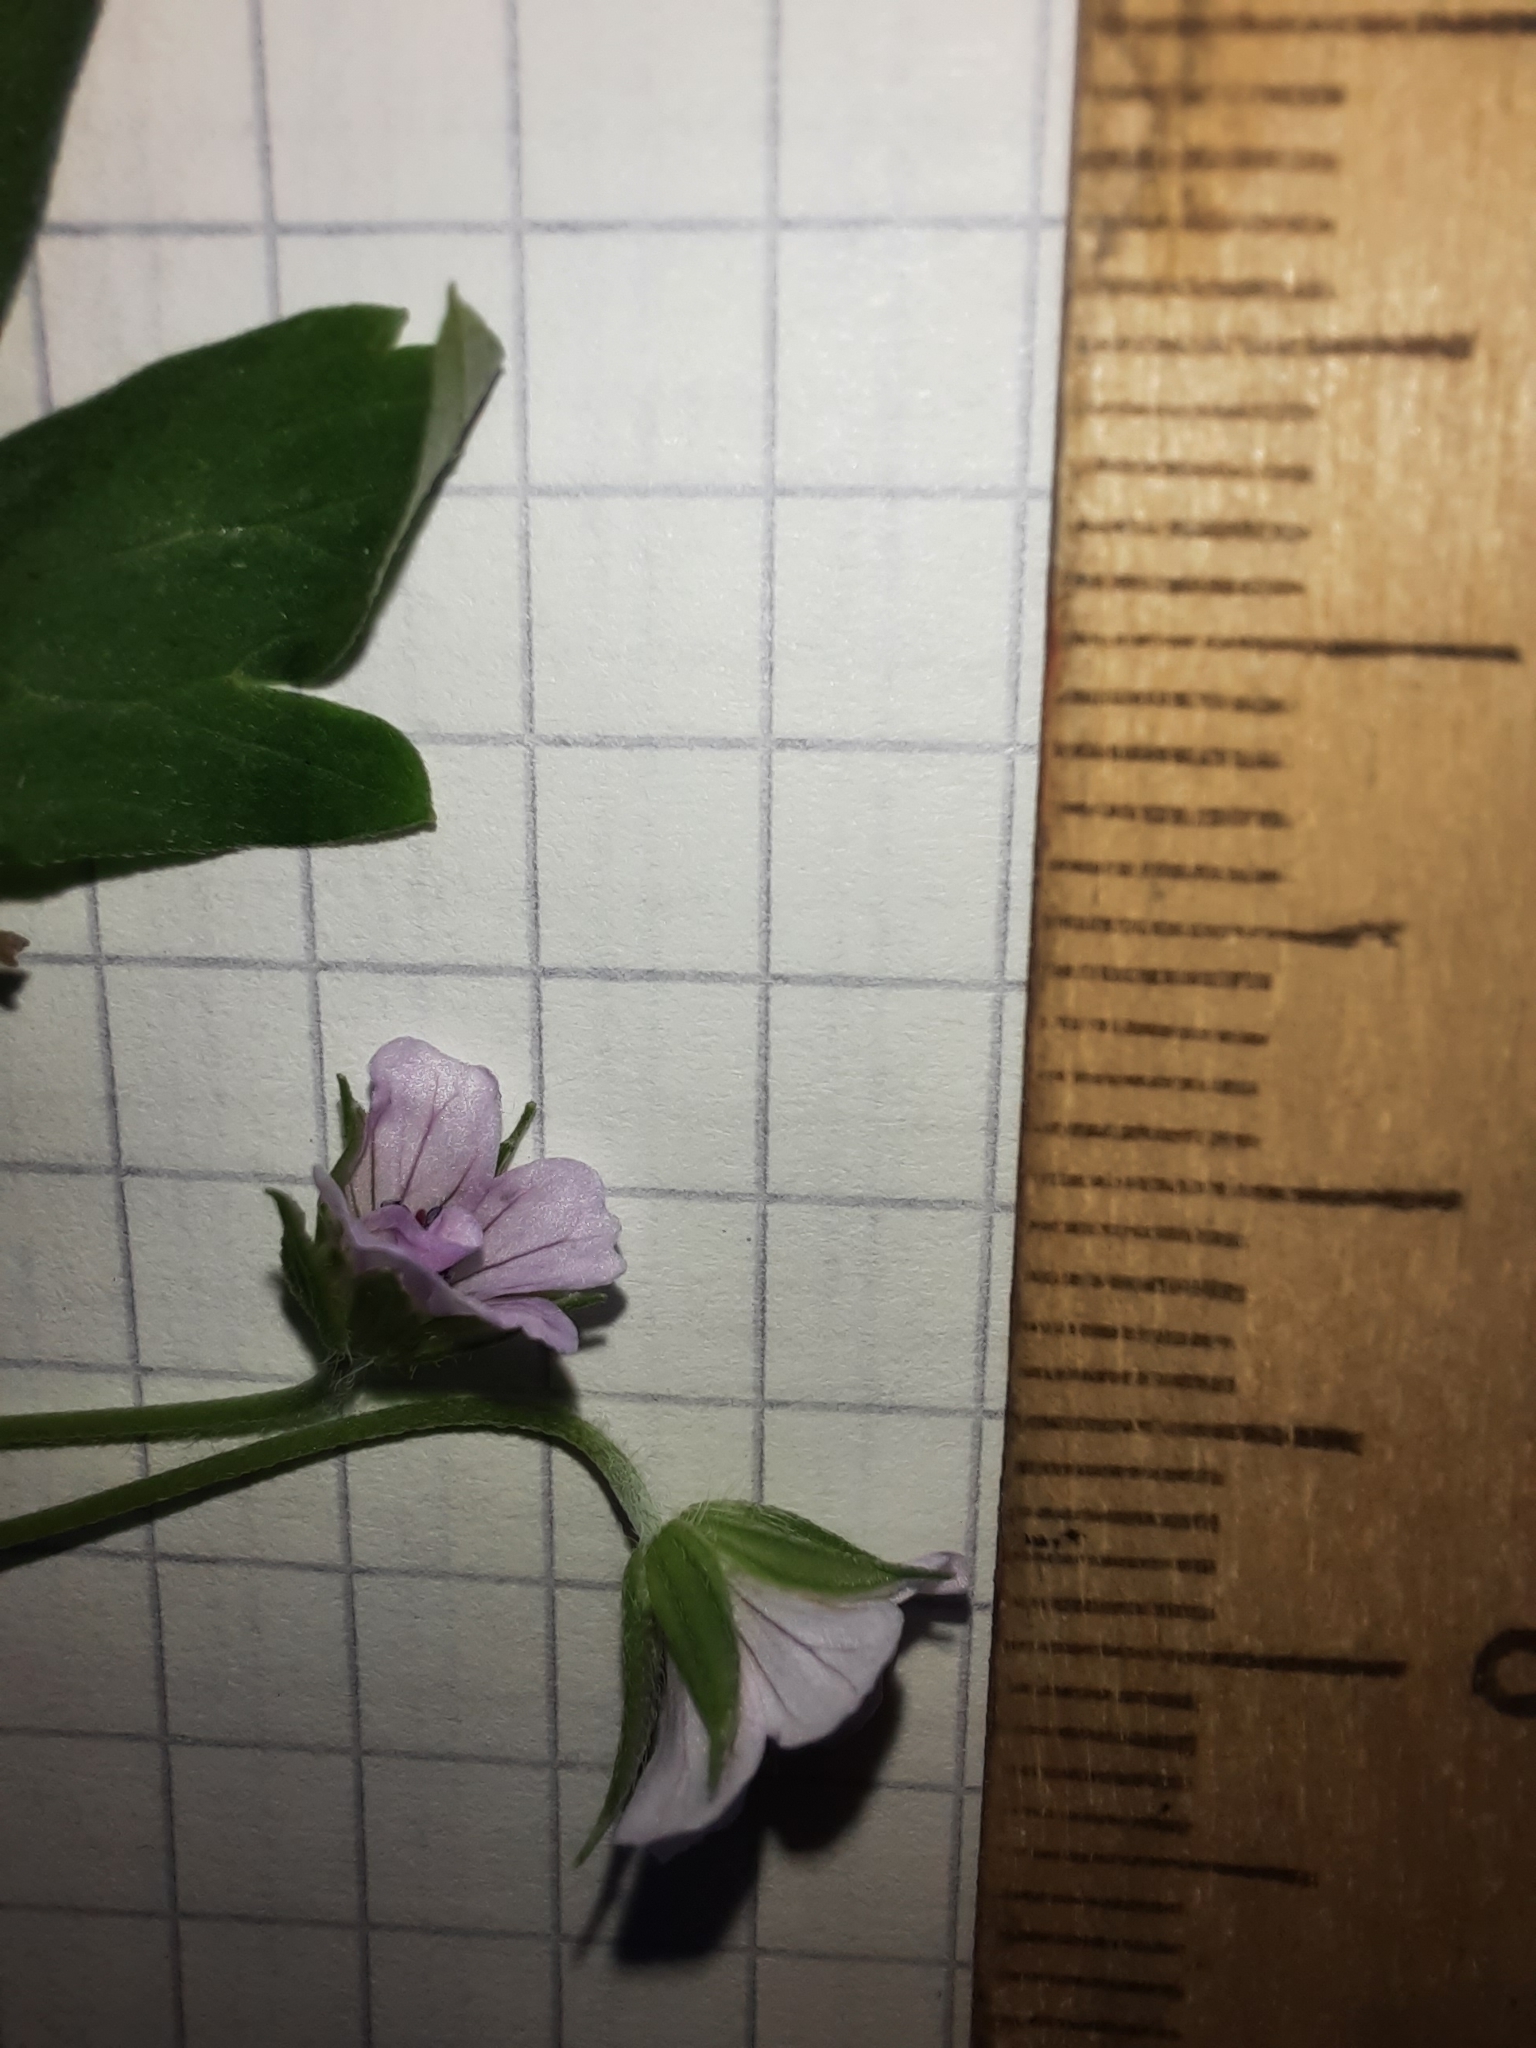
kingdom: Plantae
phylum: Tracheophyta
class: Magnoliopsida
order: Geraniales
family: Geraniaceae
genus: Geranium
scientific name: Geranium sibiricum
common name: Siberian crane's-bill
